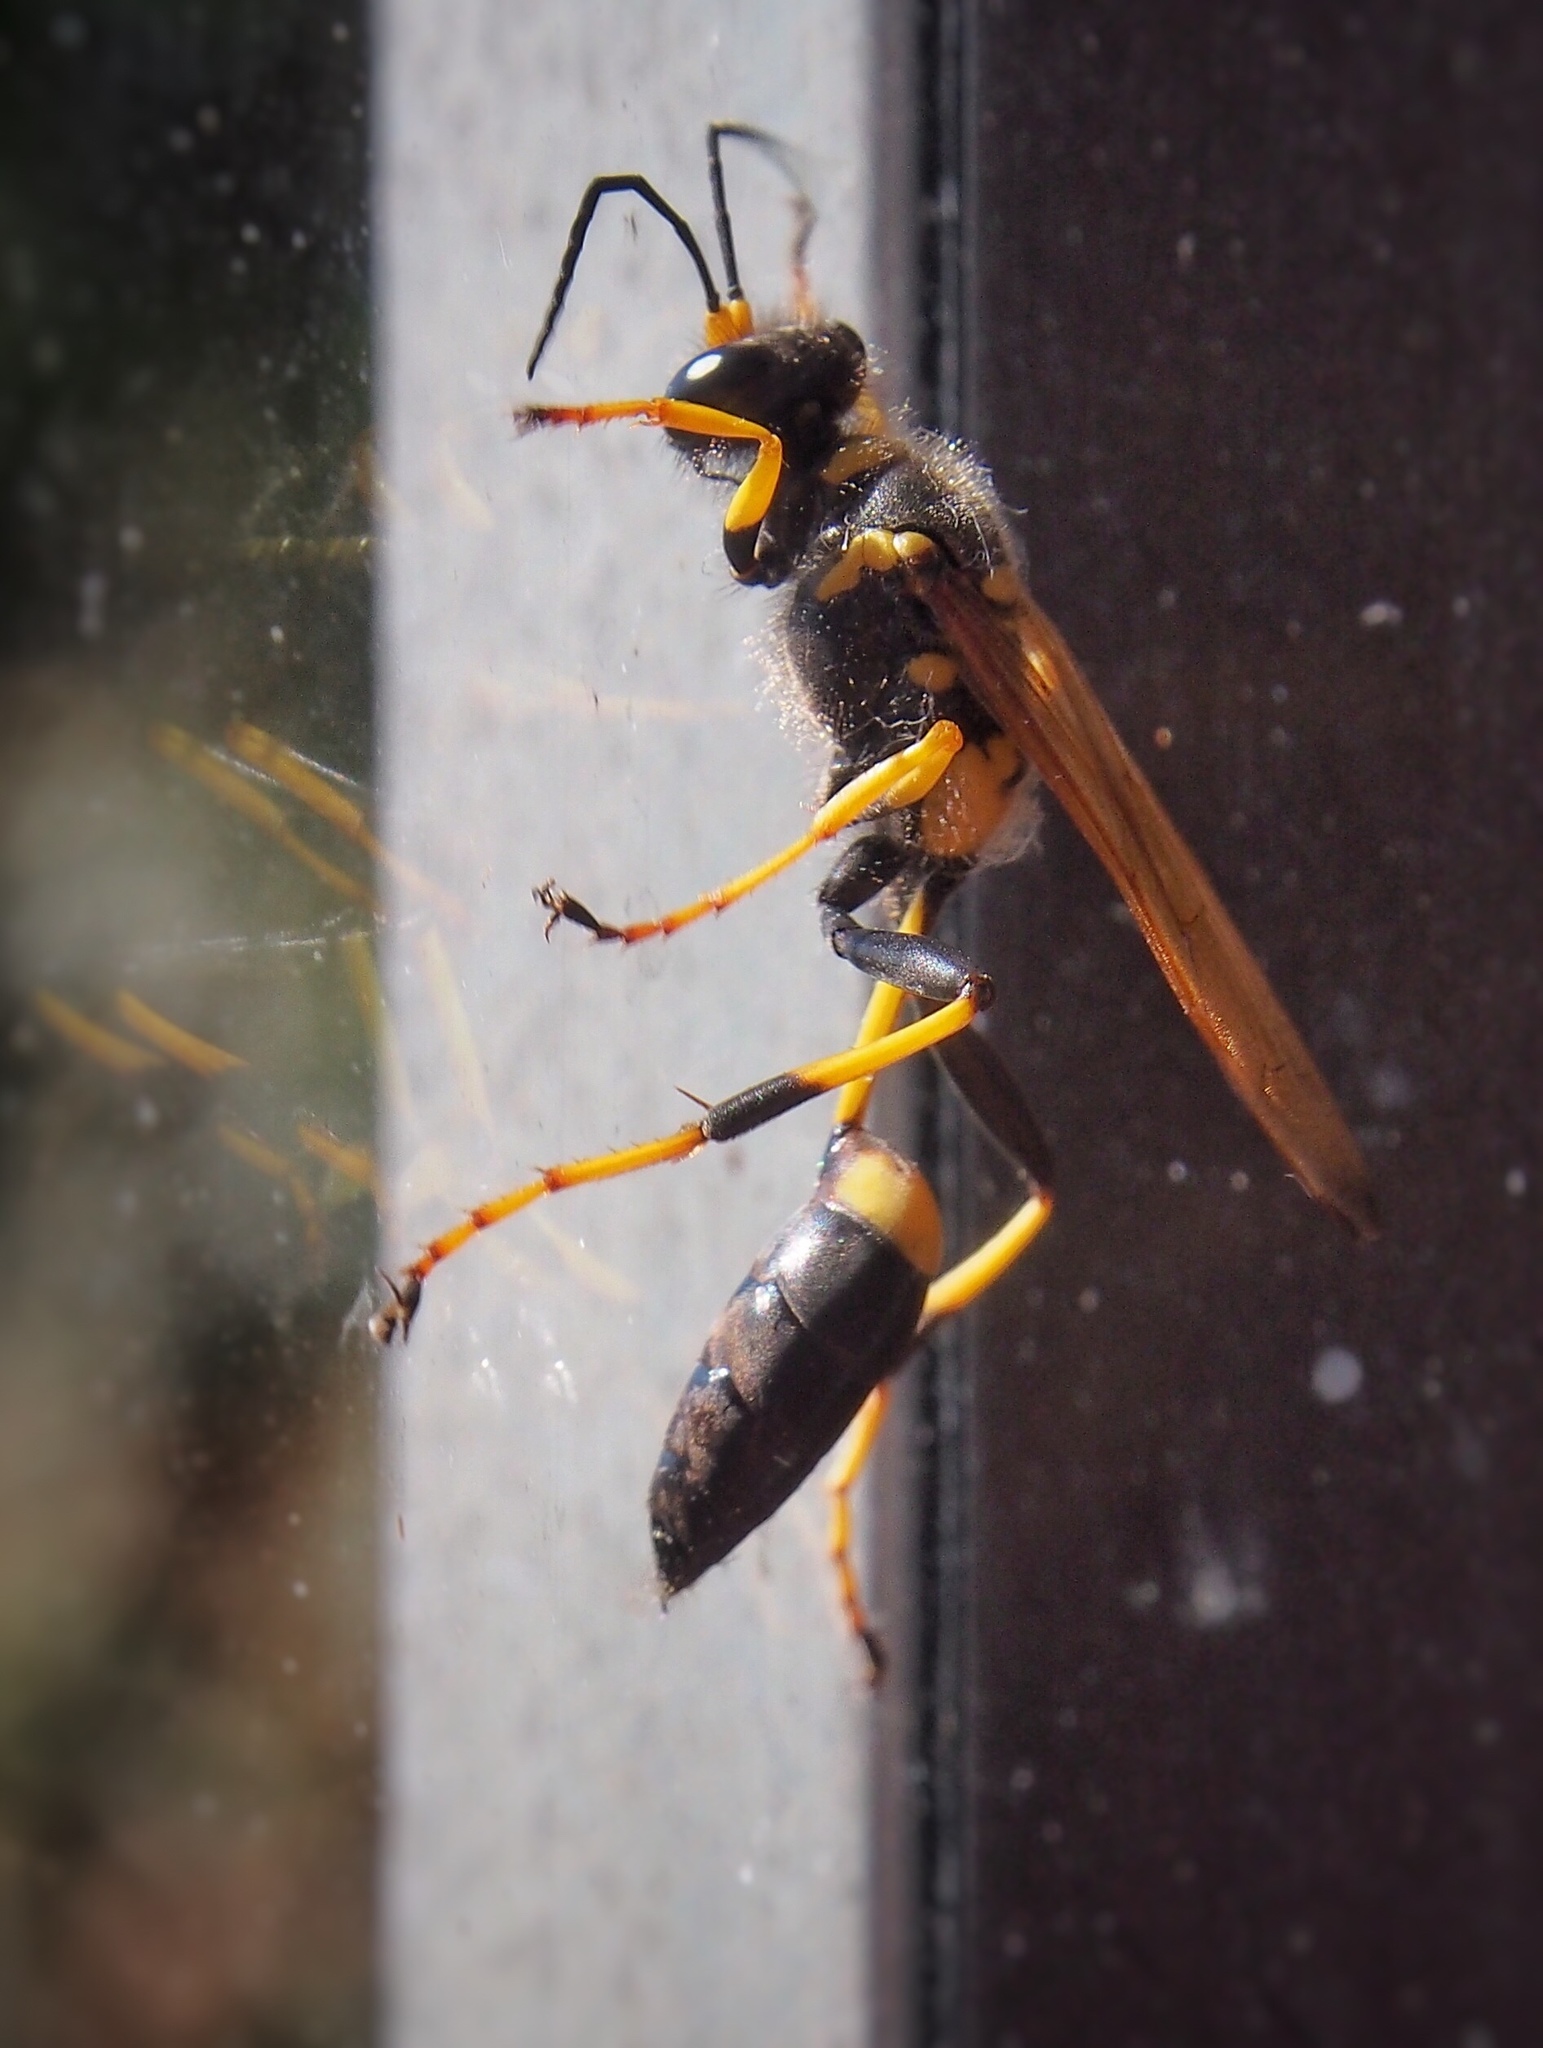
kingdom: Animalia
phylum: Arthropoda
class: Insecta
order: Hymenoptera
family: Sphecidae
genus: Sceliphron
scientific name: Sceliphron caementarium
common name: Mud dauber
